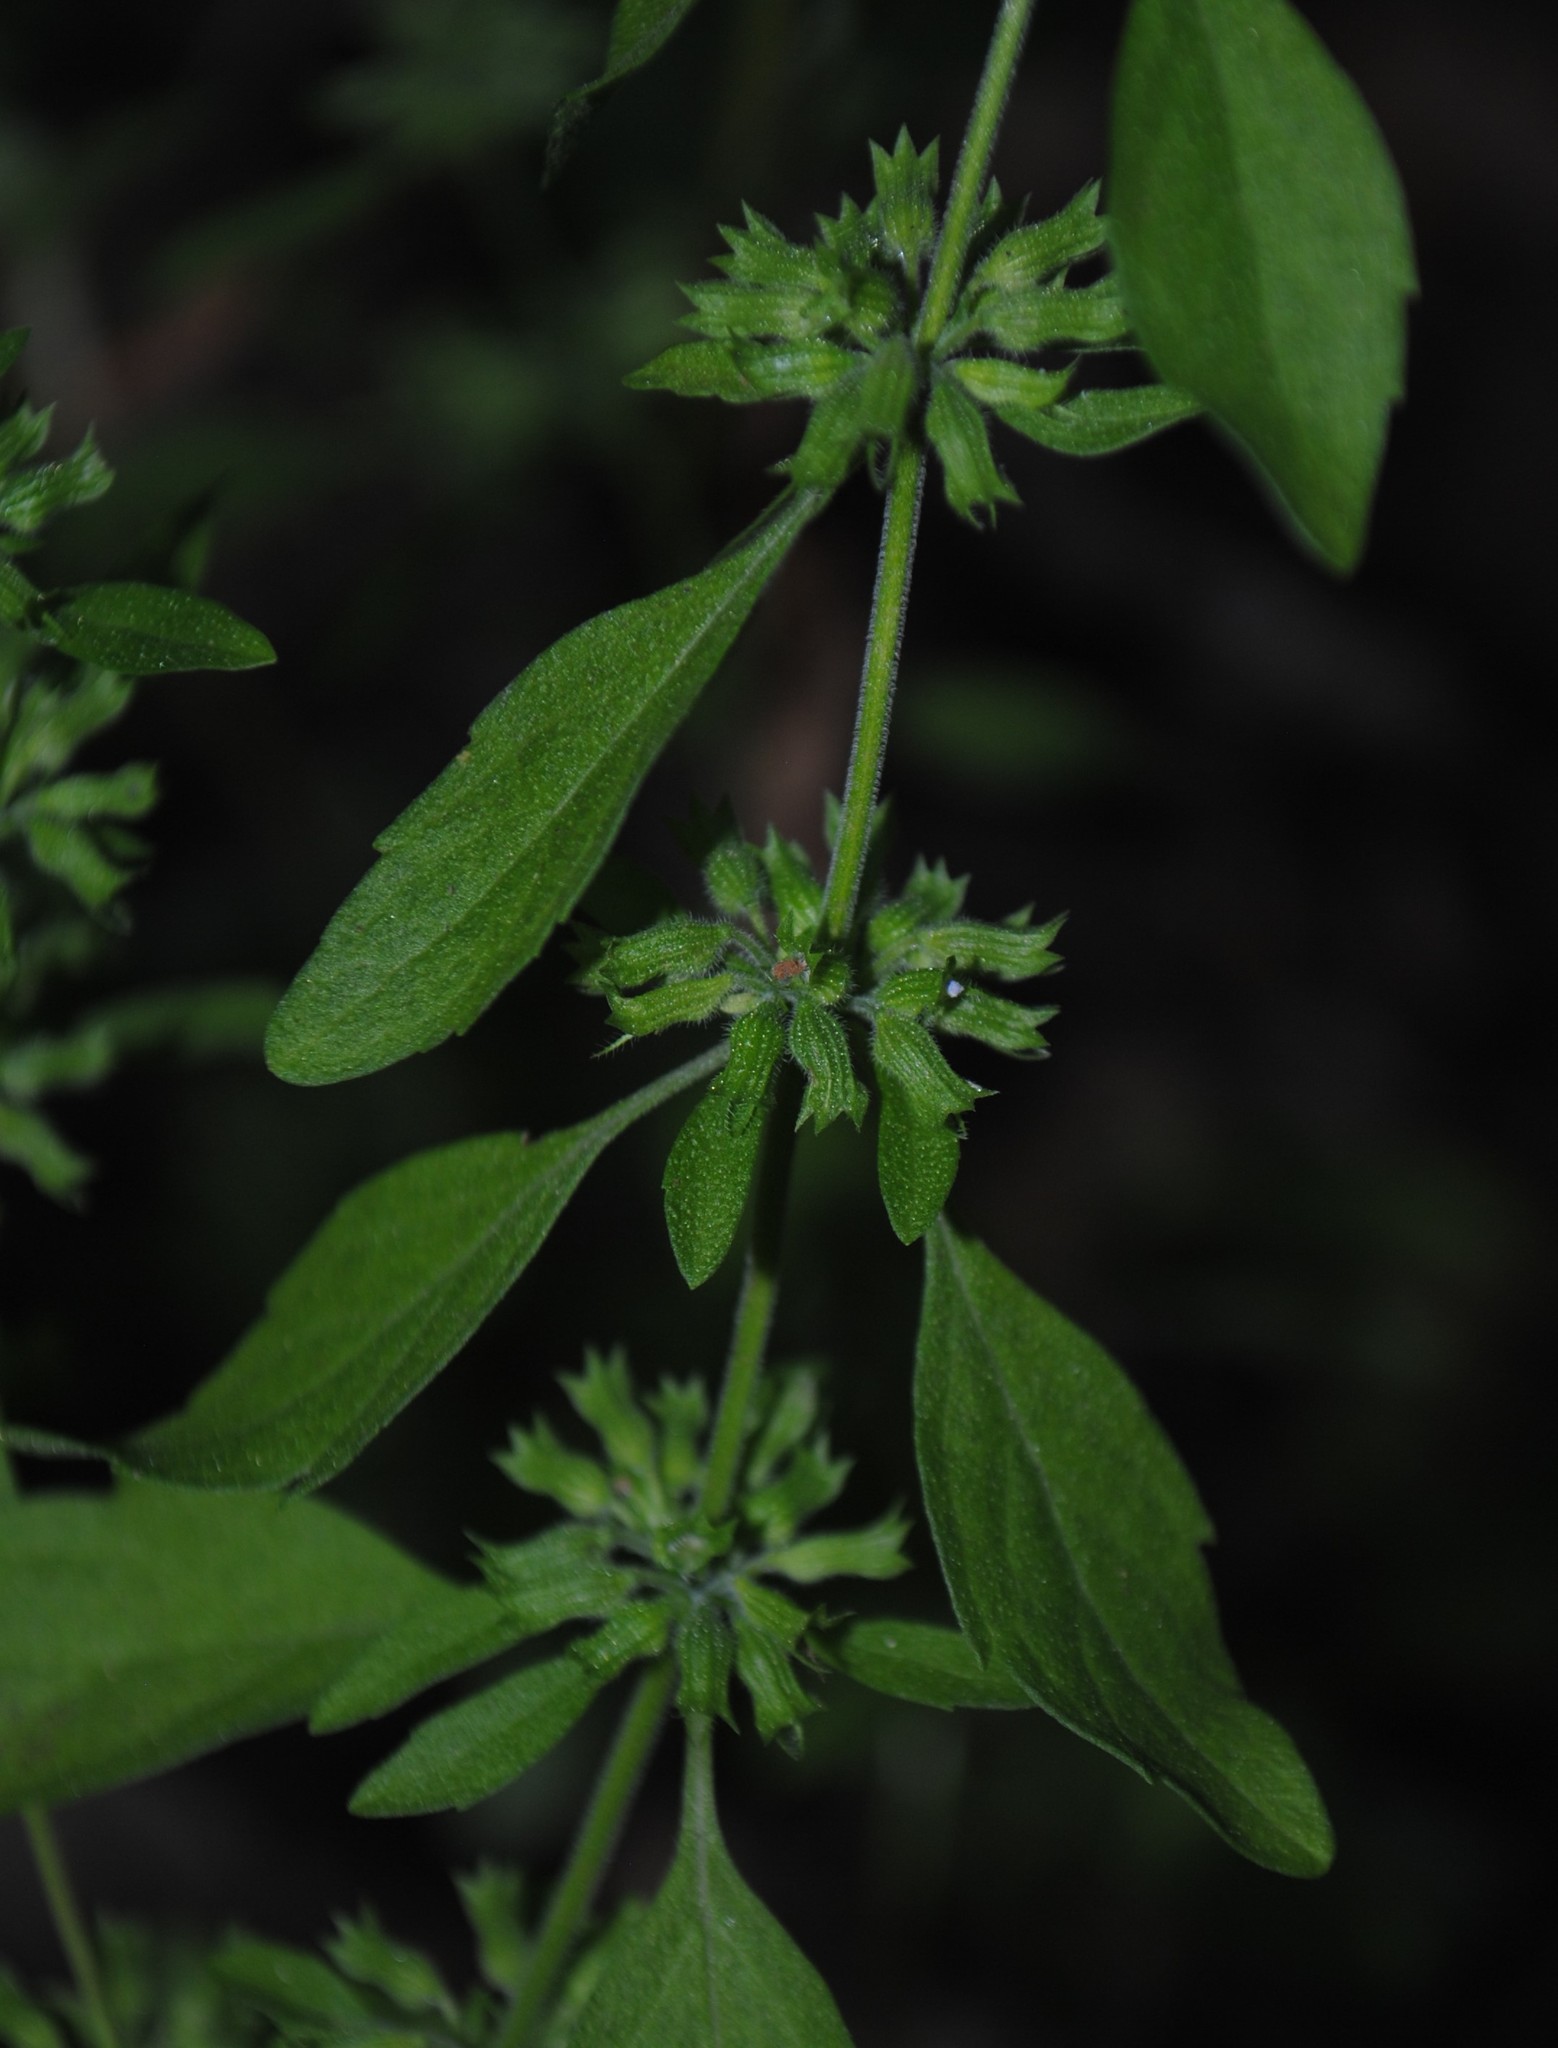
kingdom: Plantae
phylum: Tracheophyta
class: Magnoliopsida
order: Lamiales
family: Lamiaceae
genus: Hedeoma
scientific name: Hedeoma pulegioides
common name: American false pennyroyal
